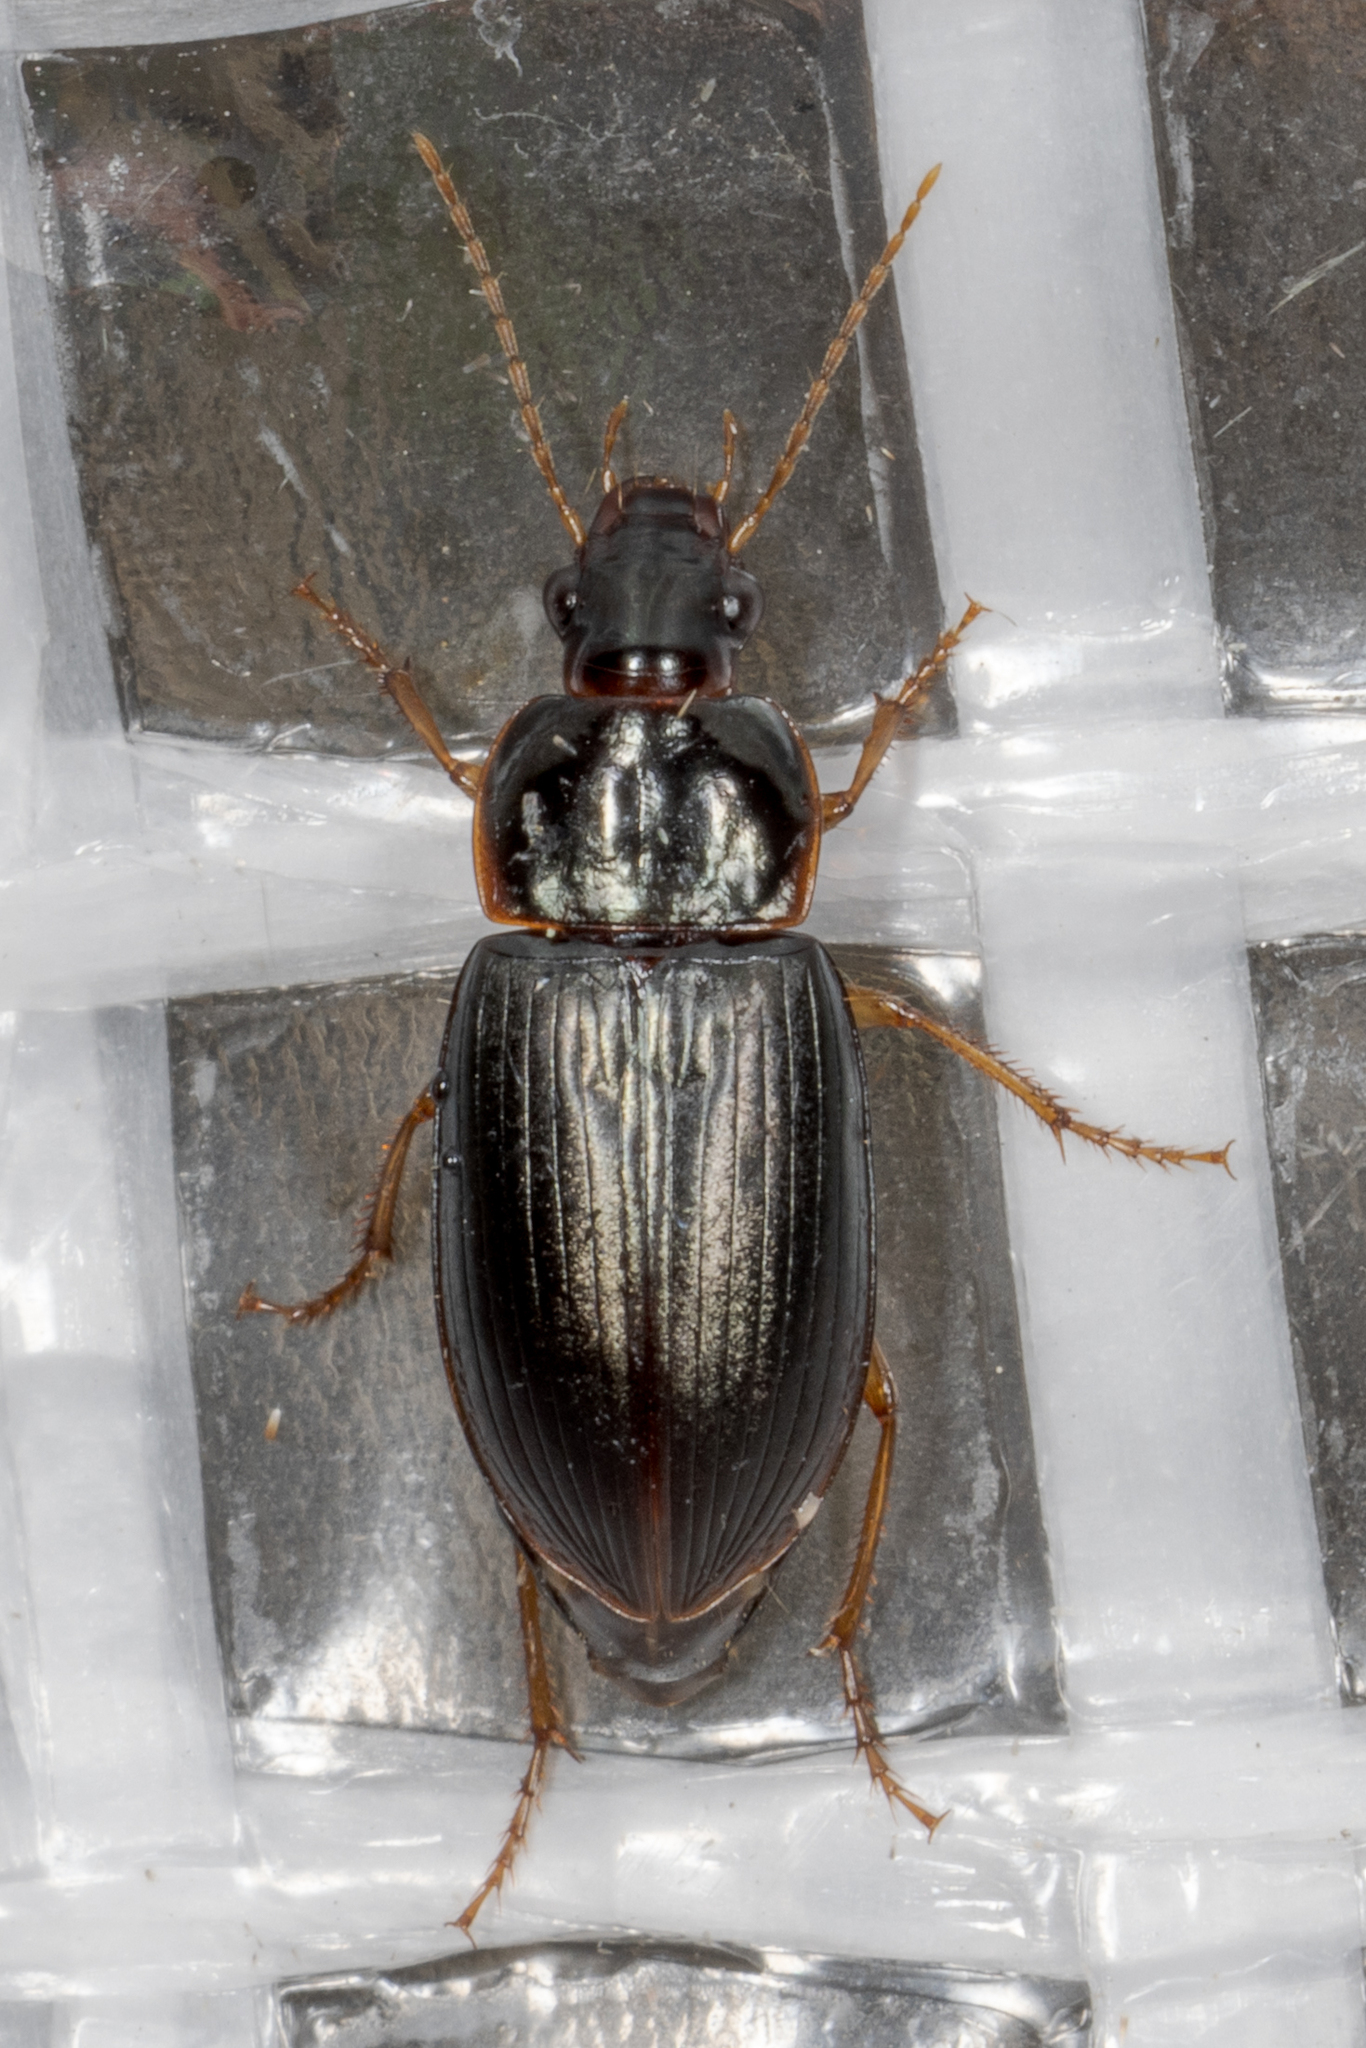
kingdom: Animalia
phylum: Arthropoda
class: Insecta
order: Coleoptera
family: Carabidae
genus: Notiobia
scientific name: Notiobia terminata
